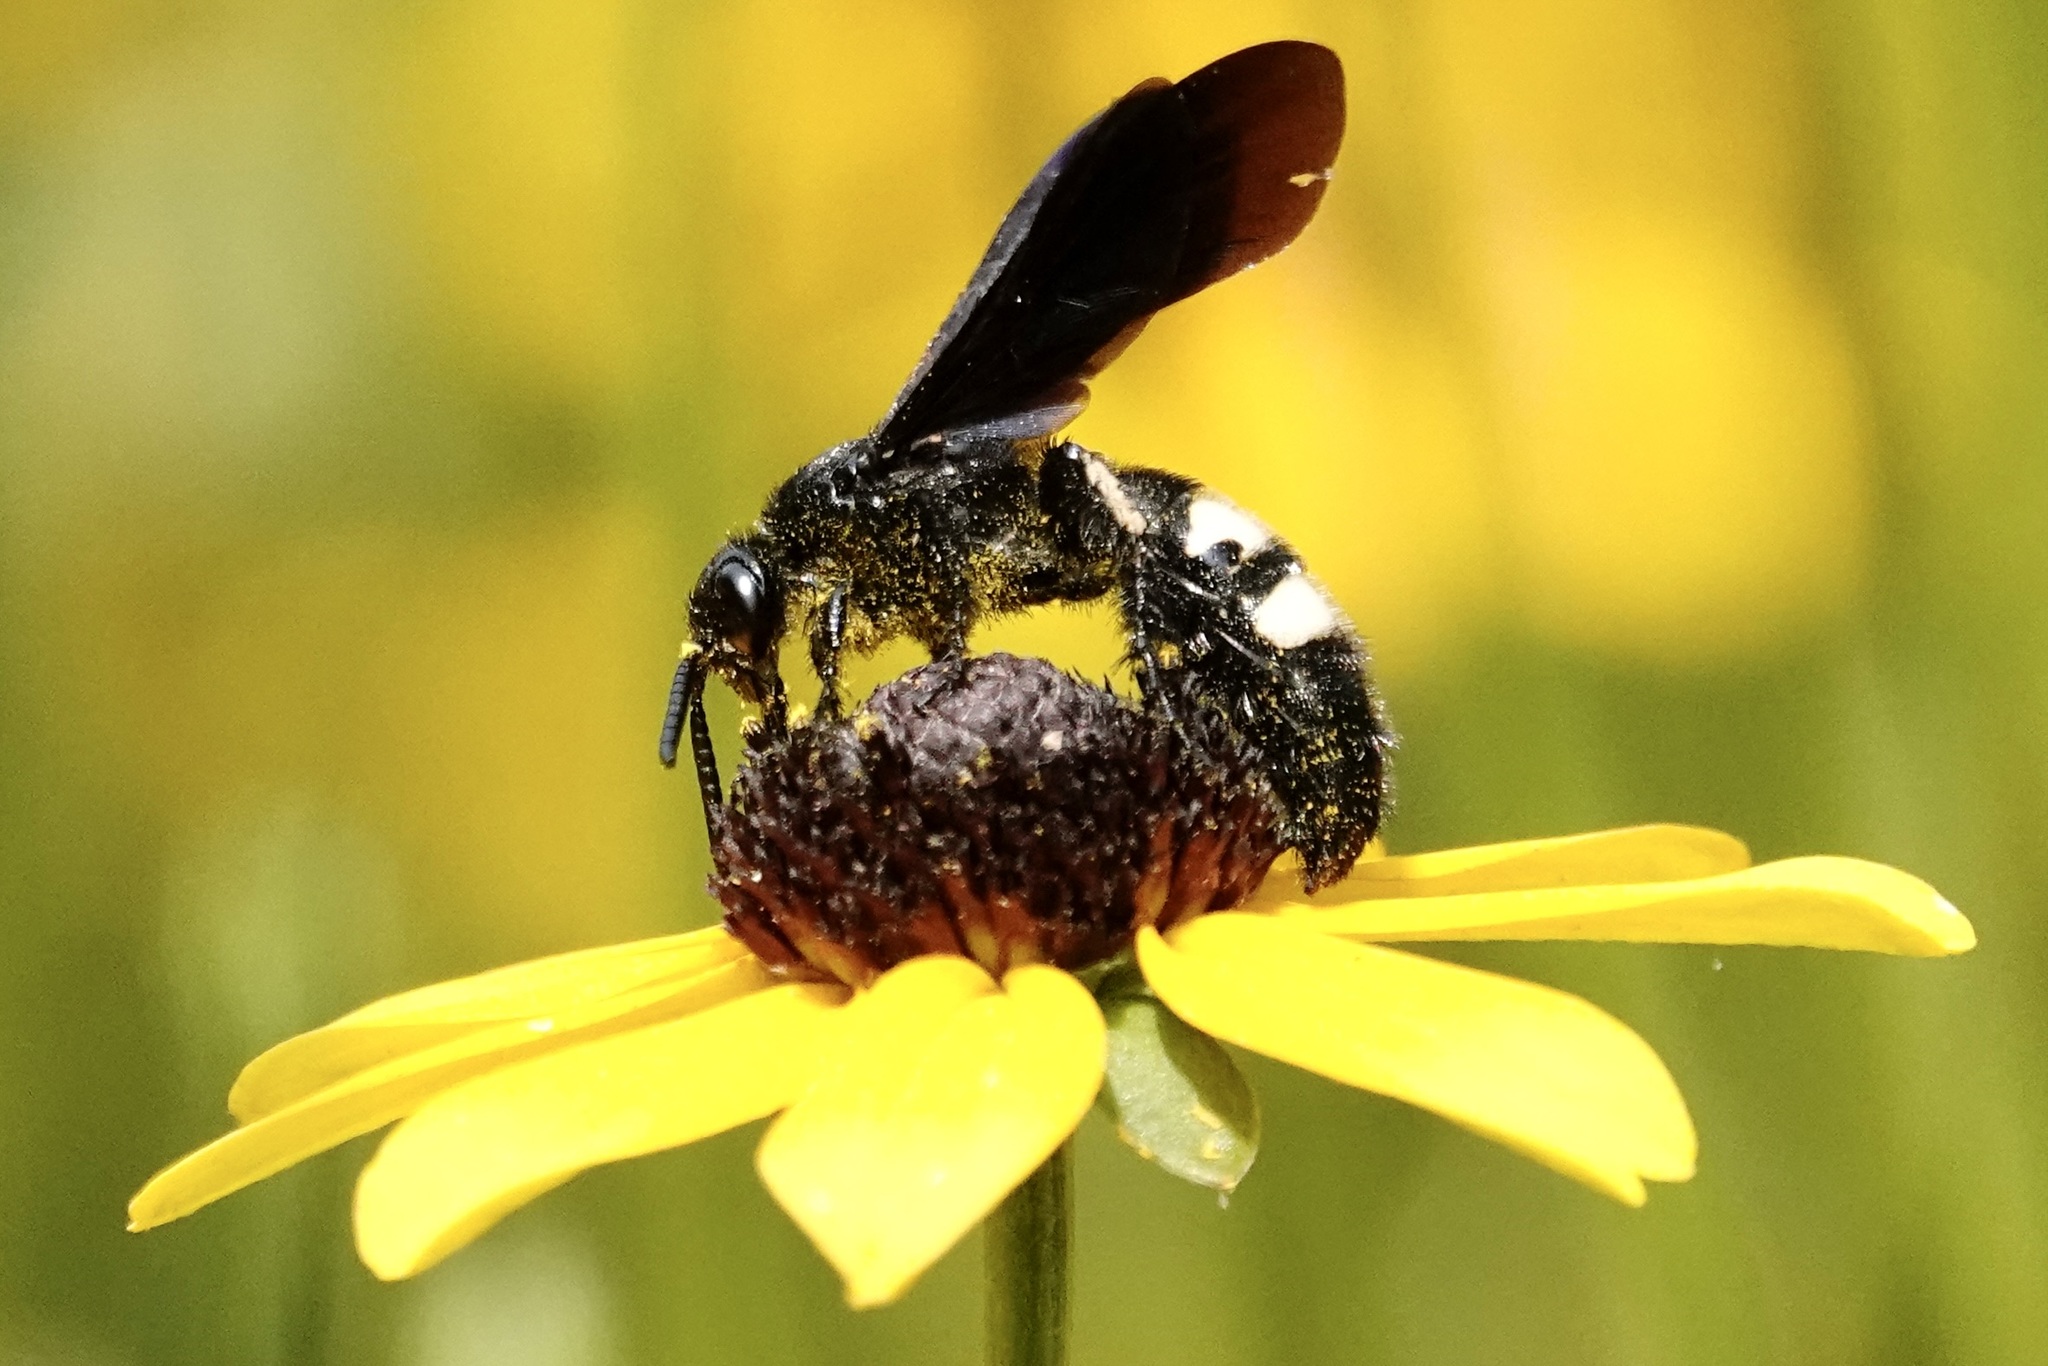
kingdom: Animalia
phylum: Arthropoda
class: Insecta
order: Hymenoptera
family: Scoliidae
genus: Scolia
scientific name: Scolia bicincta
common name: Double-banded scoliid wasp
